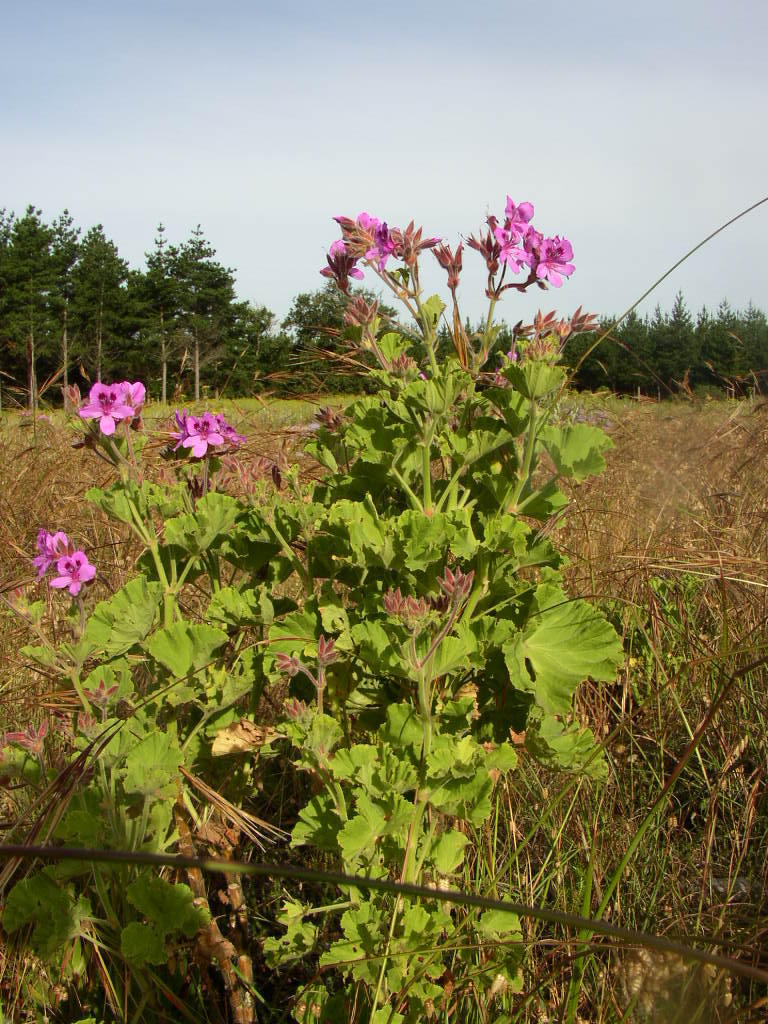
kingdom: Plantae
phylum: Tracheophyta
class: Magnoliopsida
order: Geraniales
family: Geraniaceae
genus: Pelargonium
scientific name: Pelargonium cucullatum
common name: Tree pelargonium
